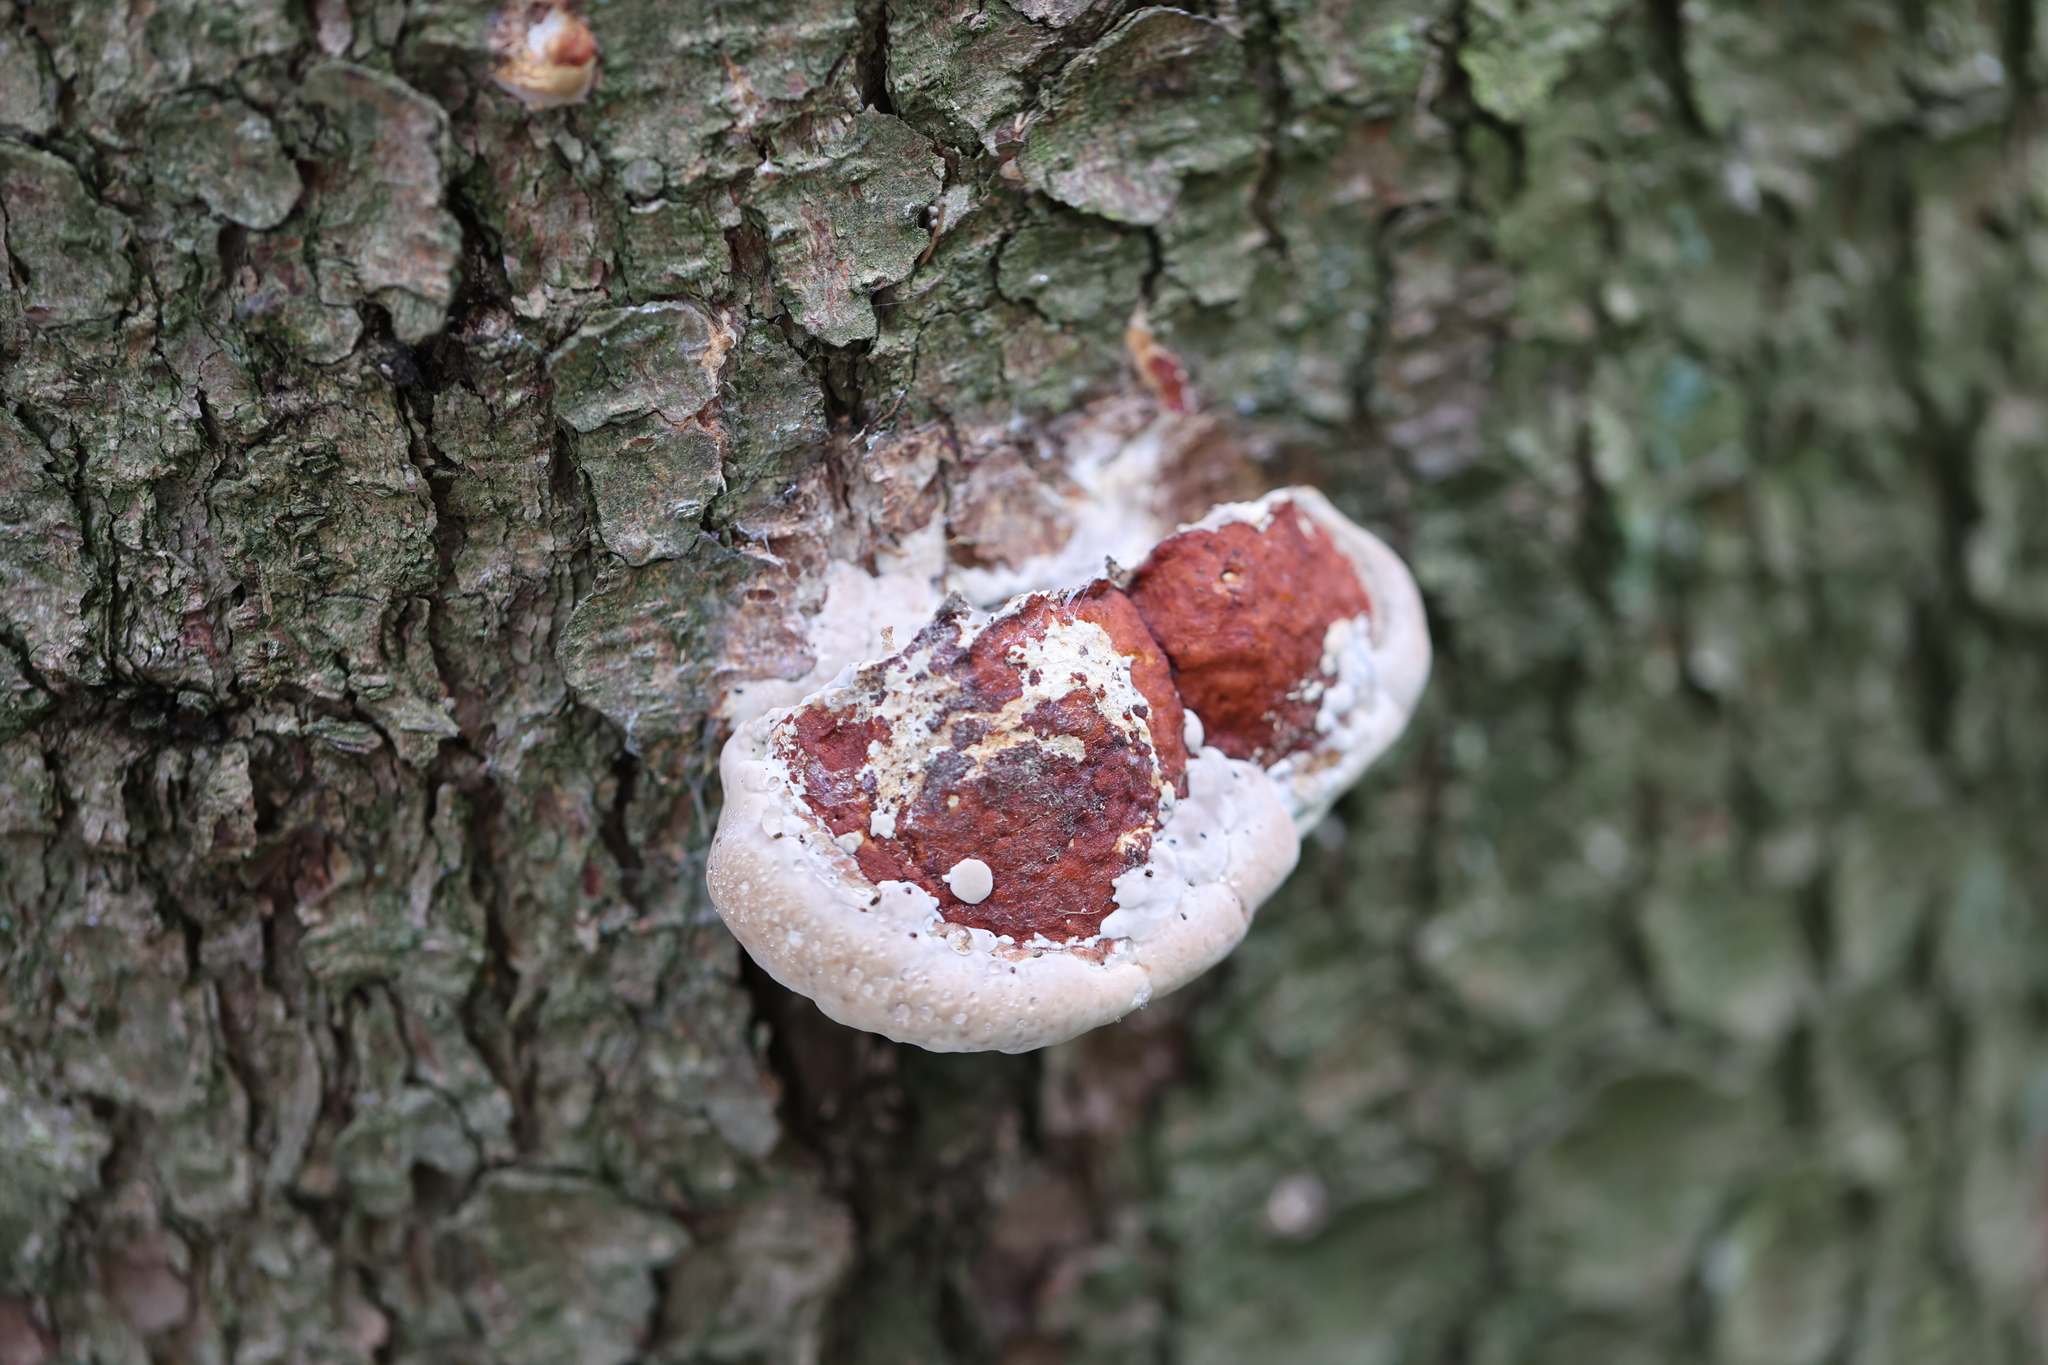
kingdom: Fungi
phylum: Basidiomycota
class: Agaricomycetes
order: Polyporales
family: Fomitopsidaceae
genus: Fomitopsis
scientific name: Fomitopsis pinicola
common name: Red-belted bracket
